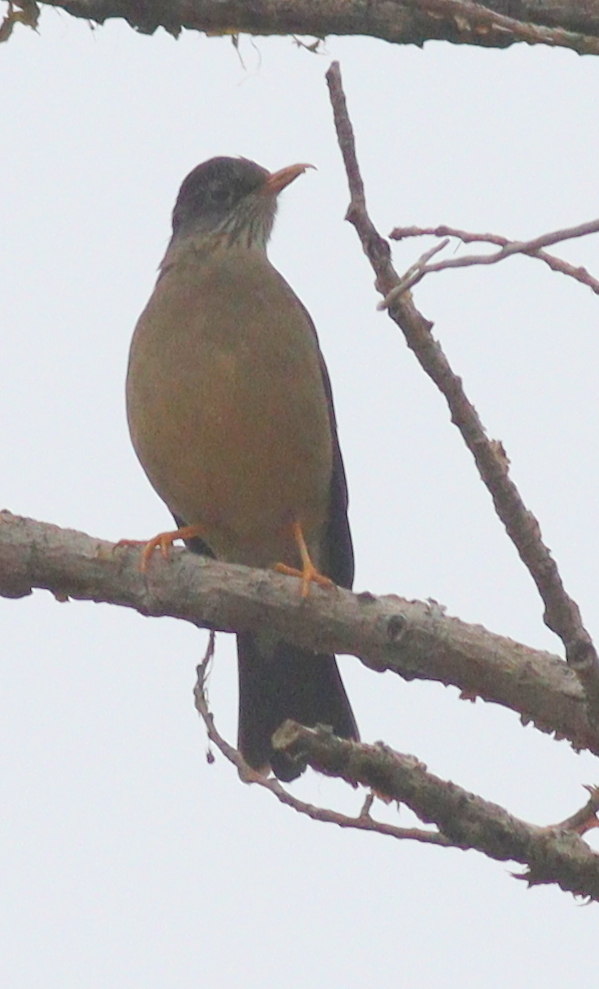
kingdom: Animalia
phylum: Chordata
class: Aves
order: Passeriformes
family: Turdidae
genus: Turdus
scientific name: Turdus falcklandii
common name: Austral thrush
